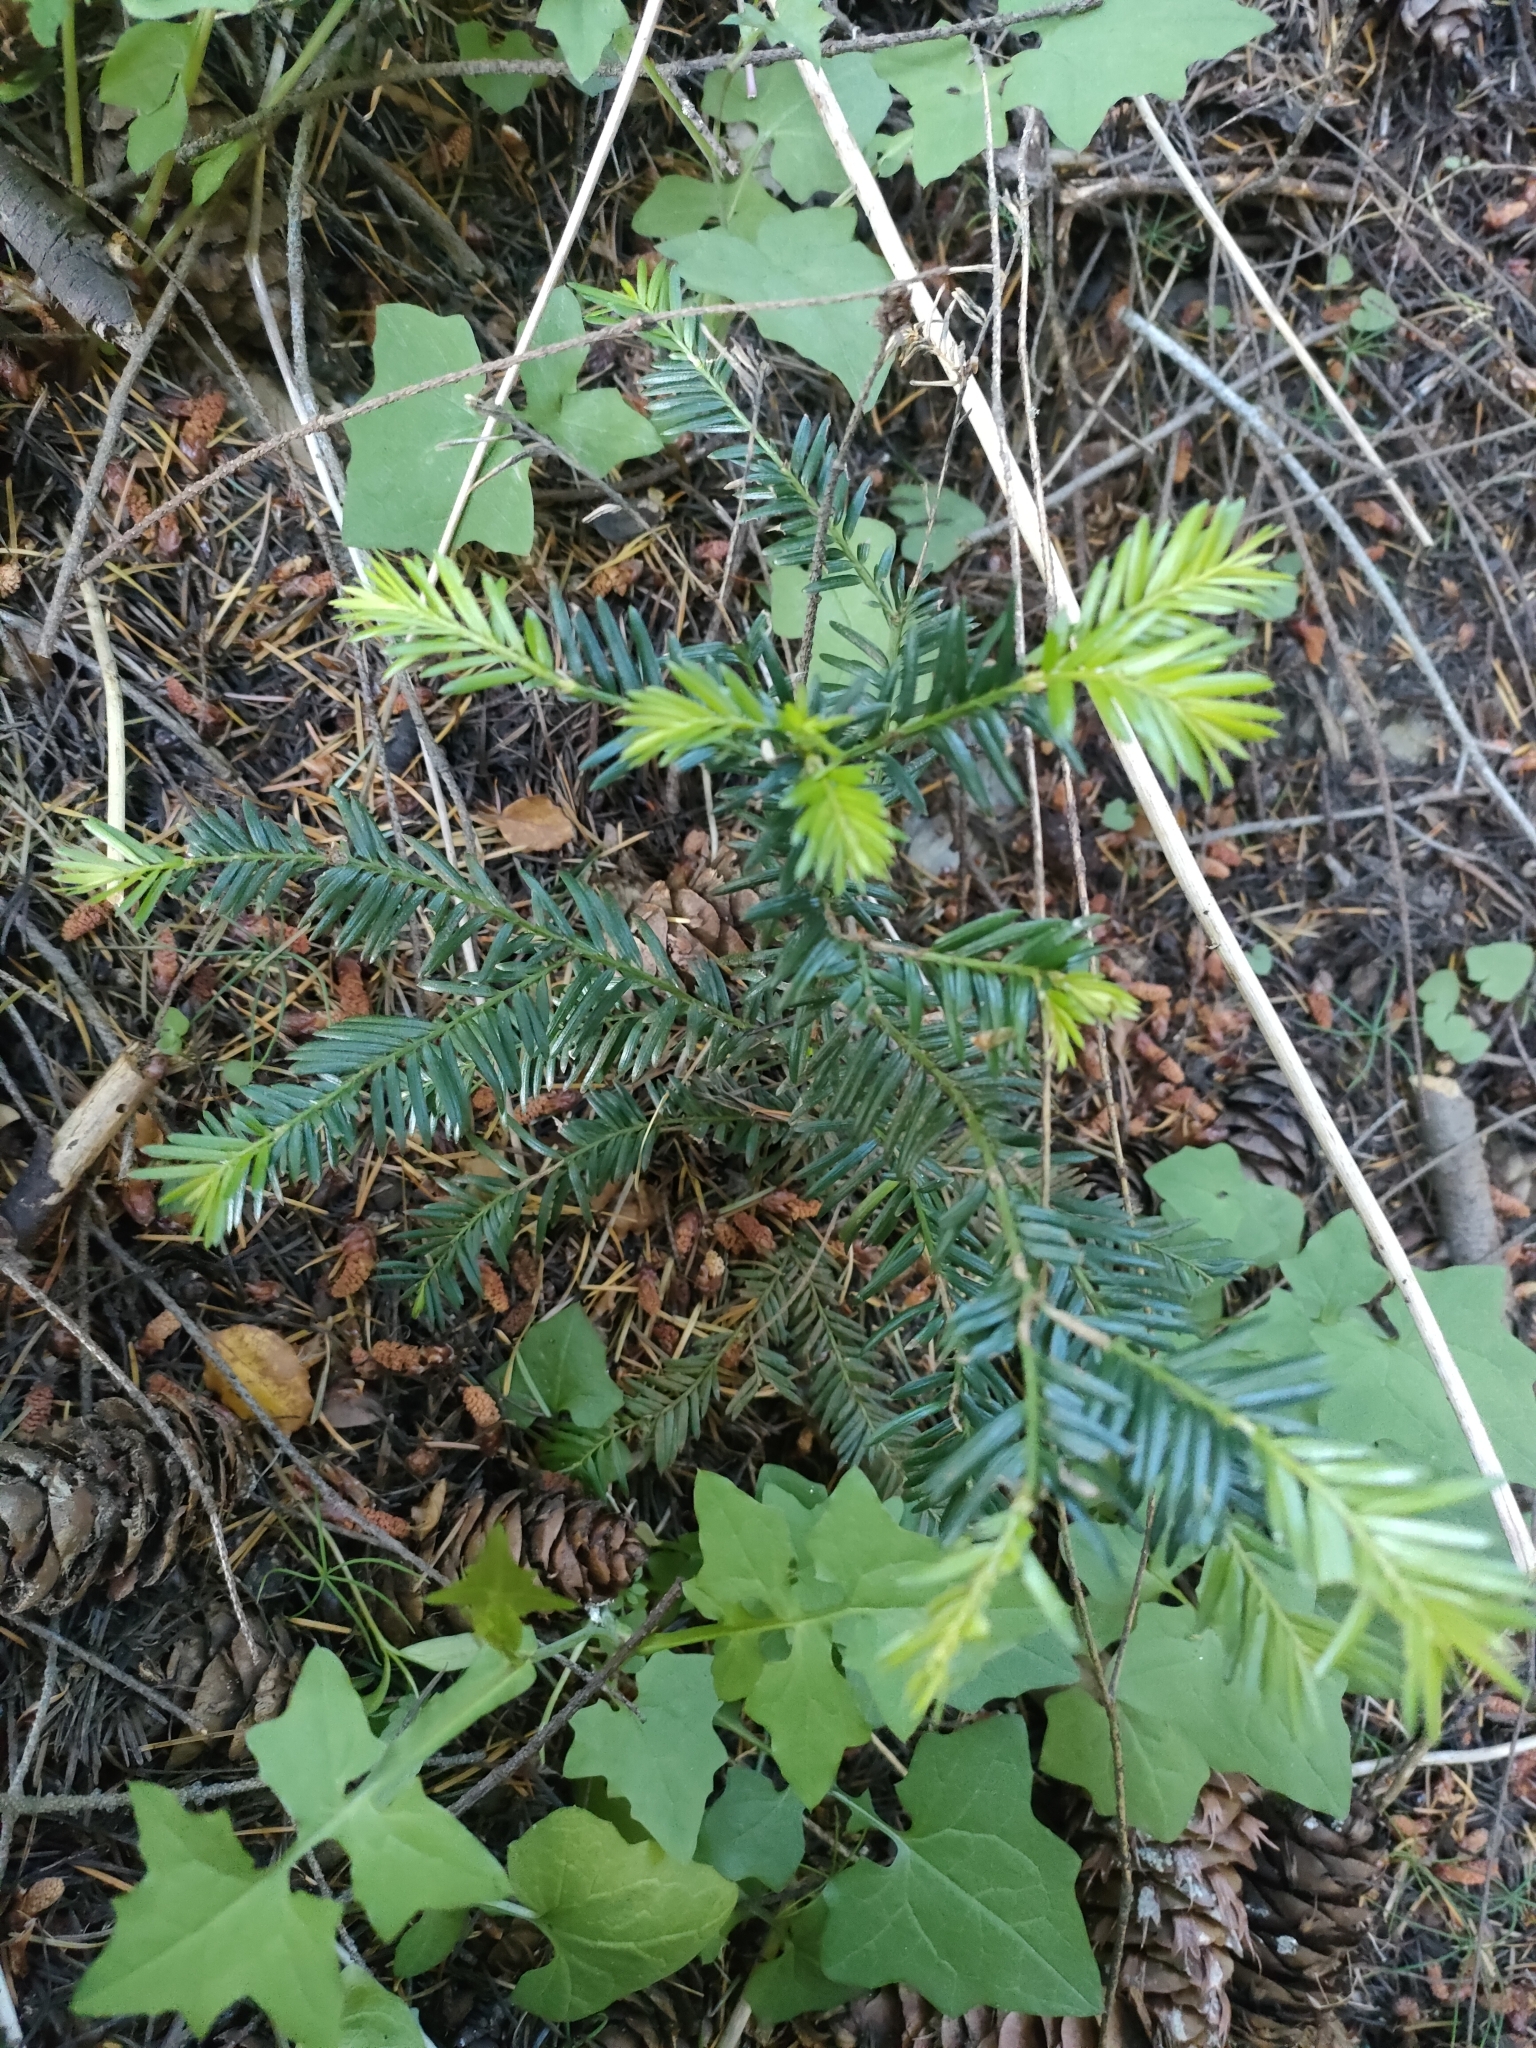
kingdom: Plantae
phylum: Tracheophyta
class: Pinopsida
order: Pinales
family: Taxaceae
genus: Taxus
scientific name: Taxus baccata
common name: Yew
